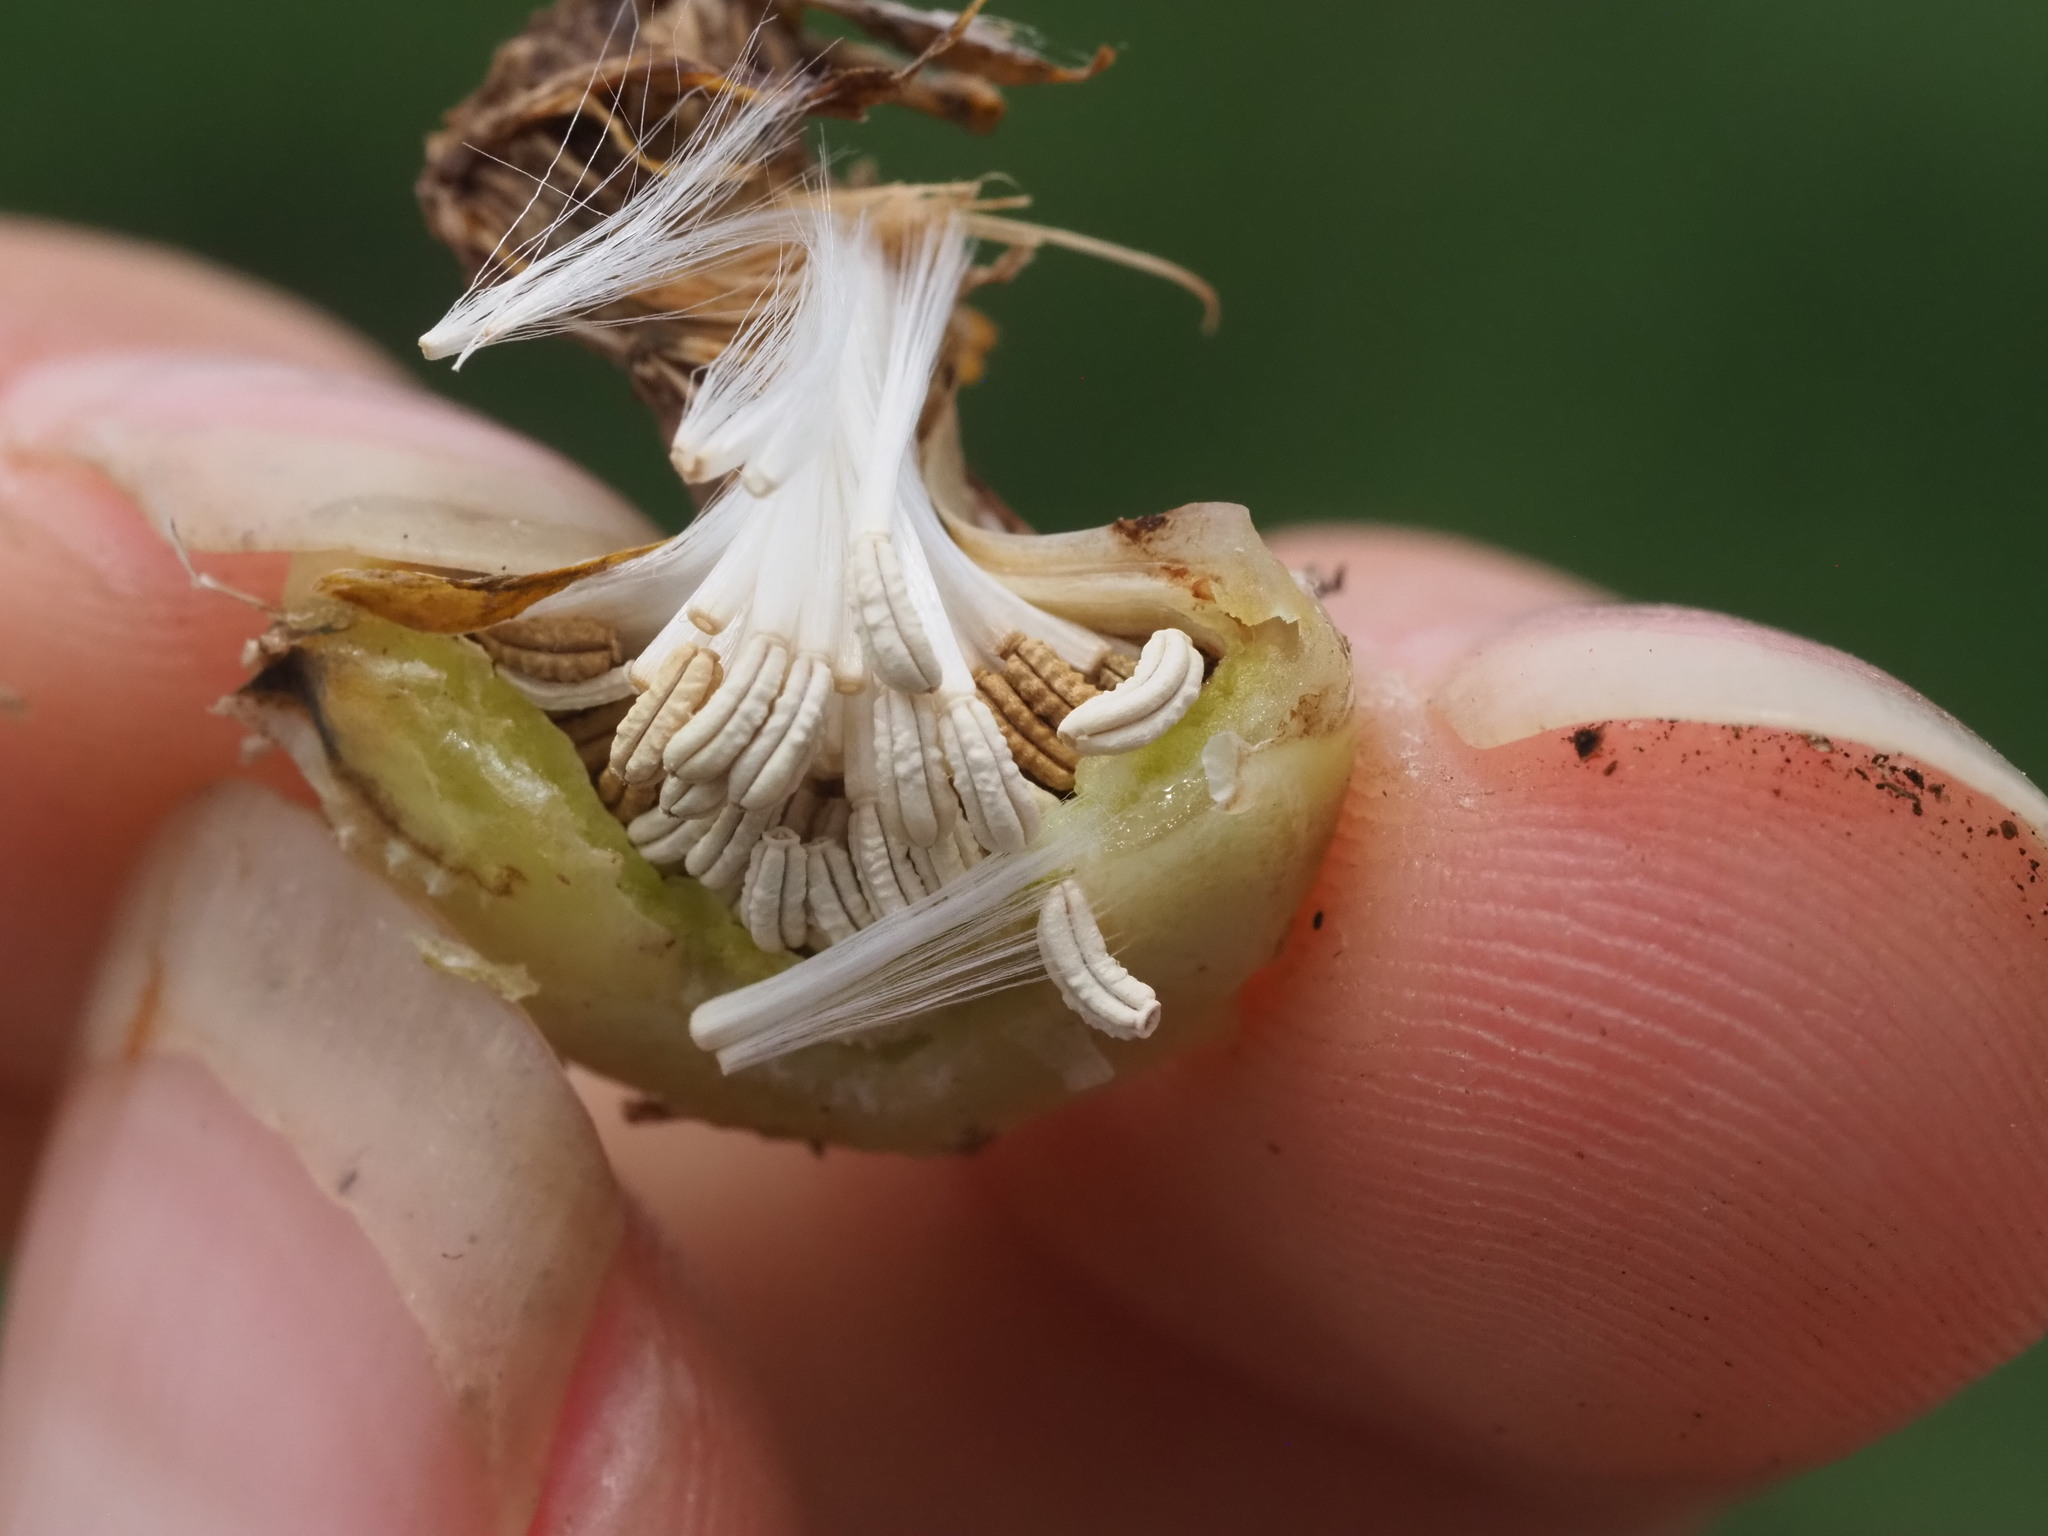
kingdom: Plantae
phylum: Tracheophyta
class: Magnoliopsida
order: Asterales
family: Asteraceae
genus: Reichardia
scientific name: Reichardia tingitana
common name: Reichardia
